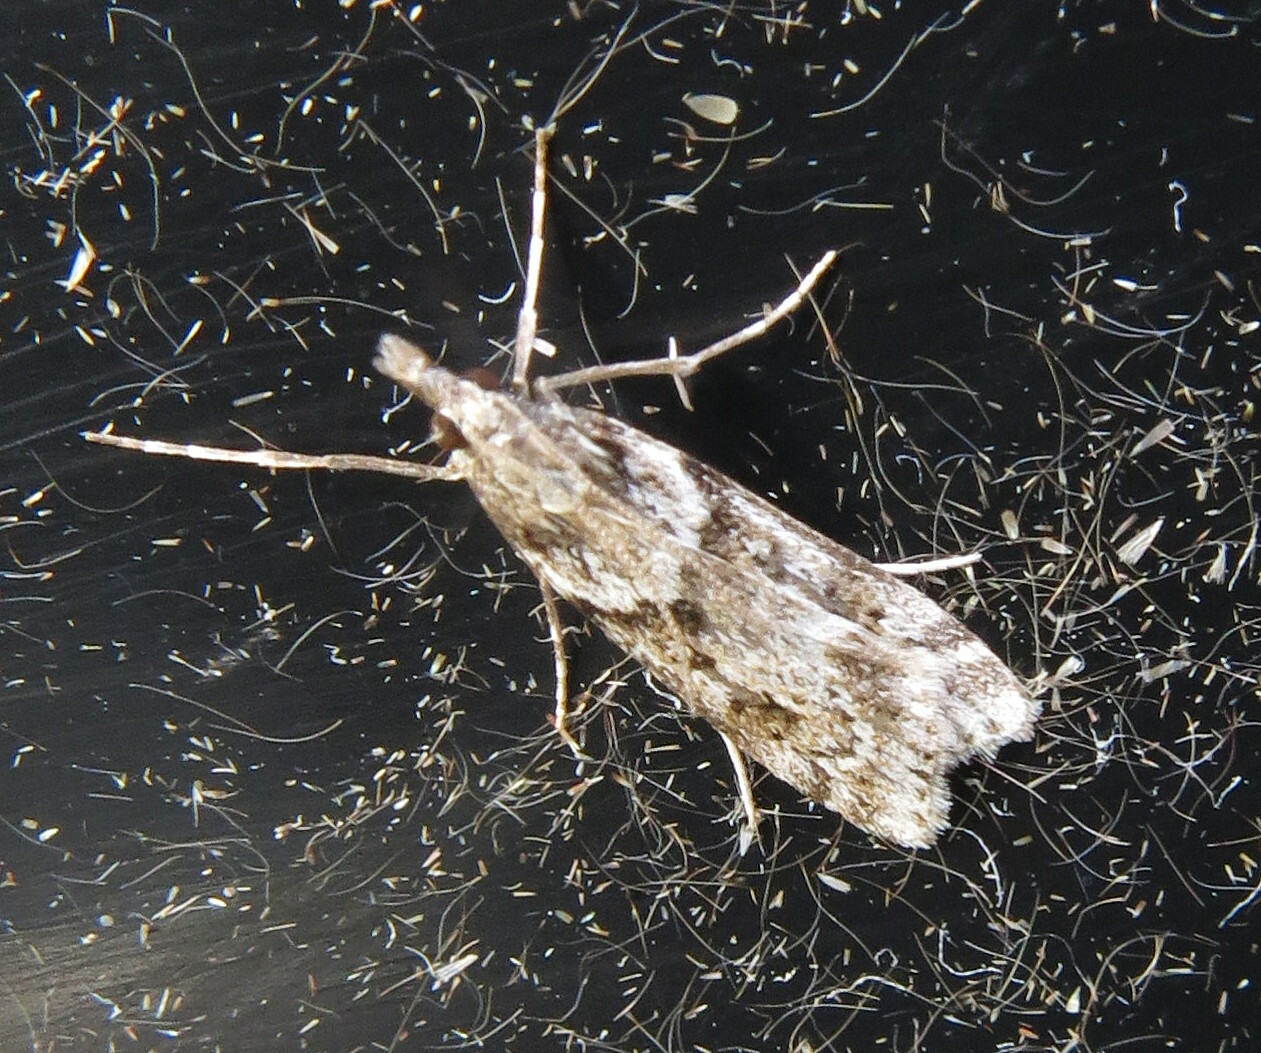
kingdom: Animalia
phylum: Arthropoda
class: Insecta
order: Lepidoptera
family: Crambidae
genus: Eudonia
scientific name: Eudonia angustea
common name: Narrow-winged grey
